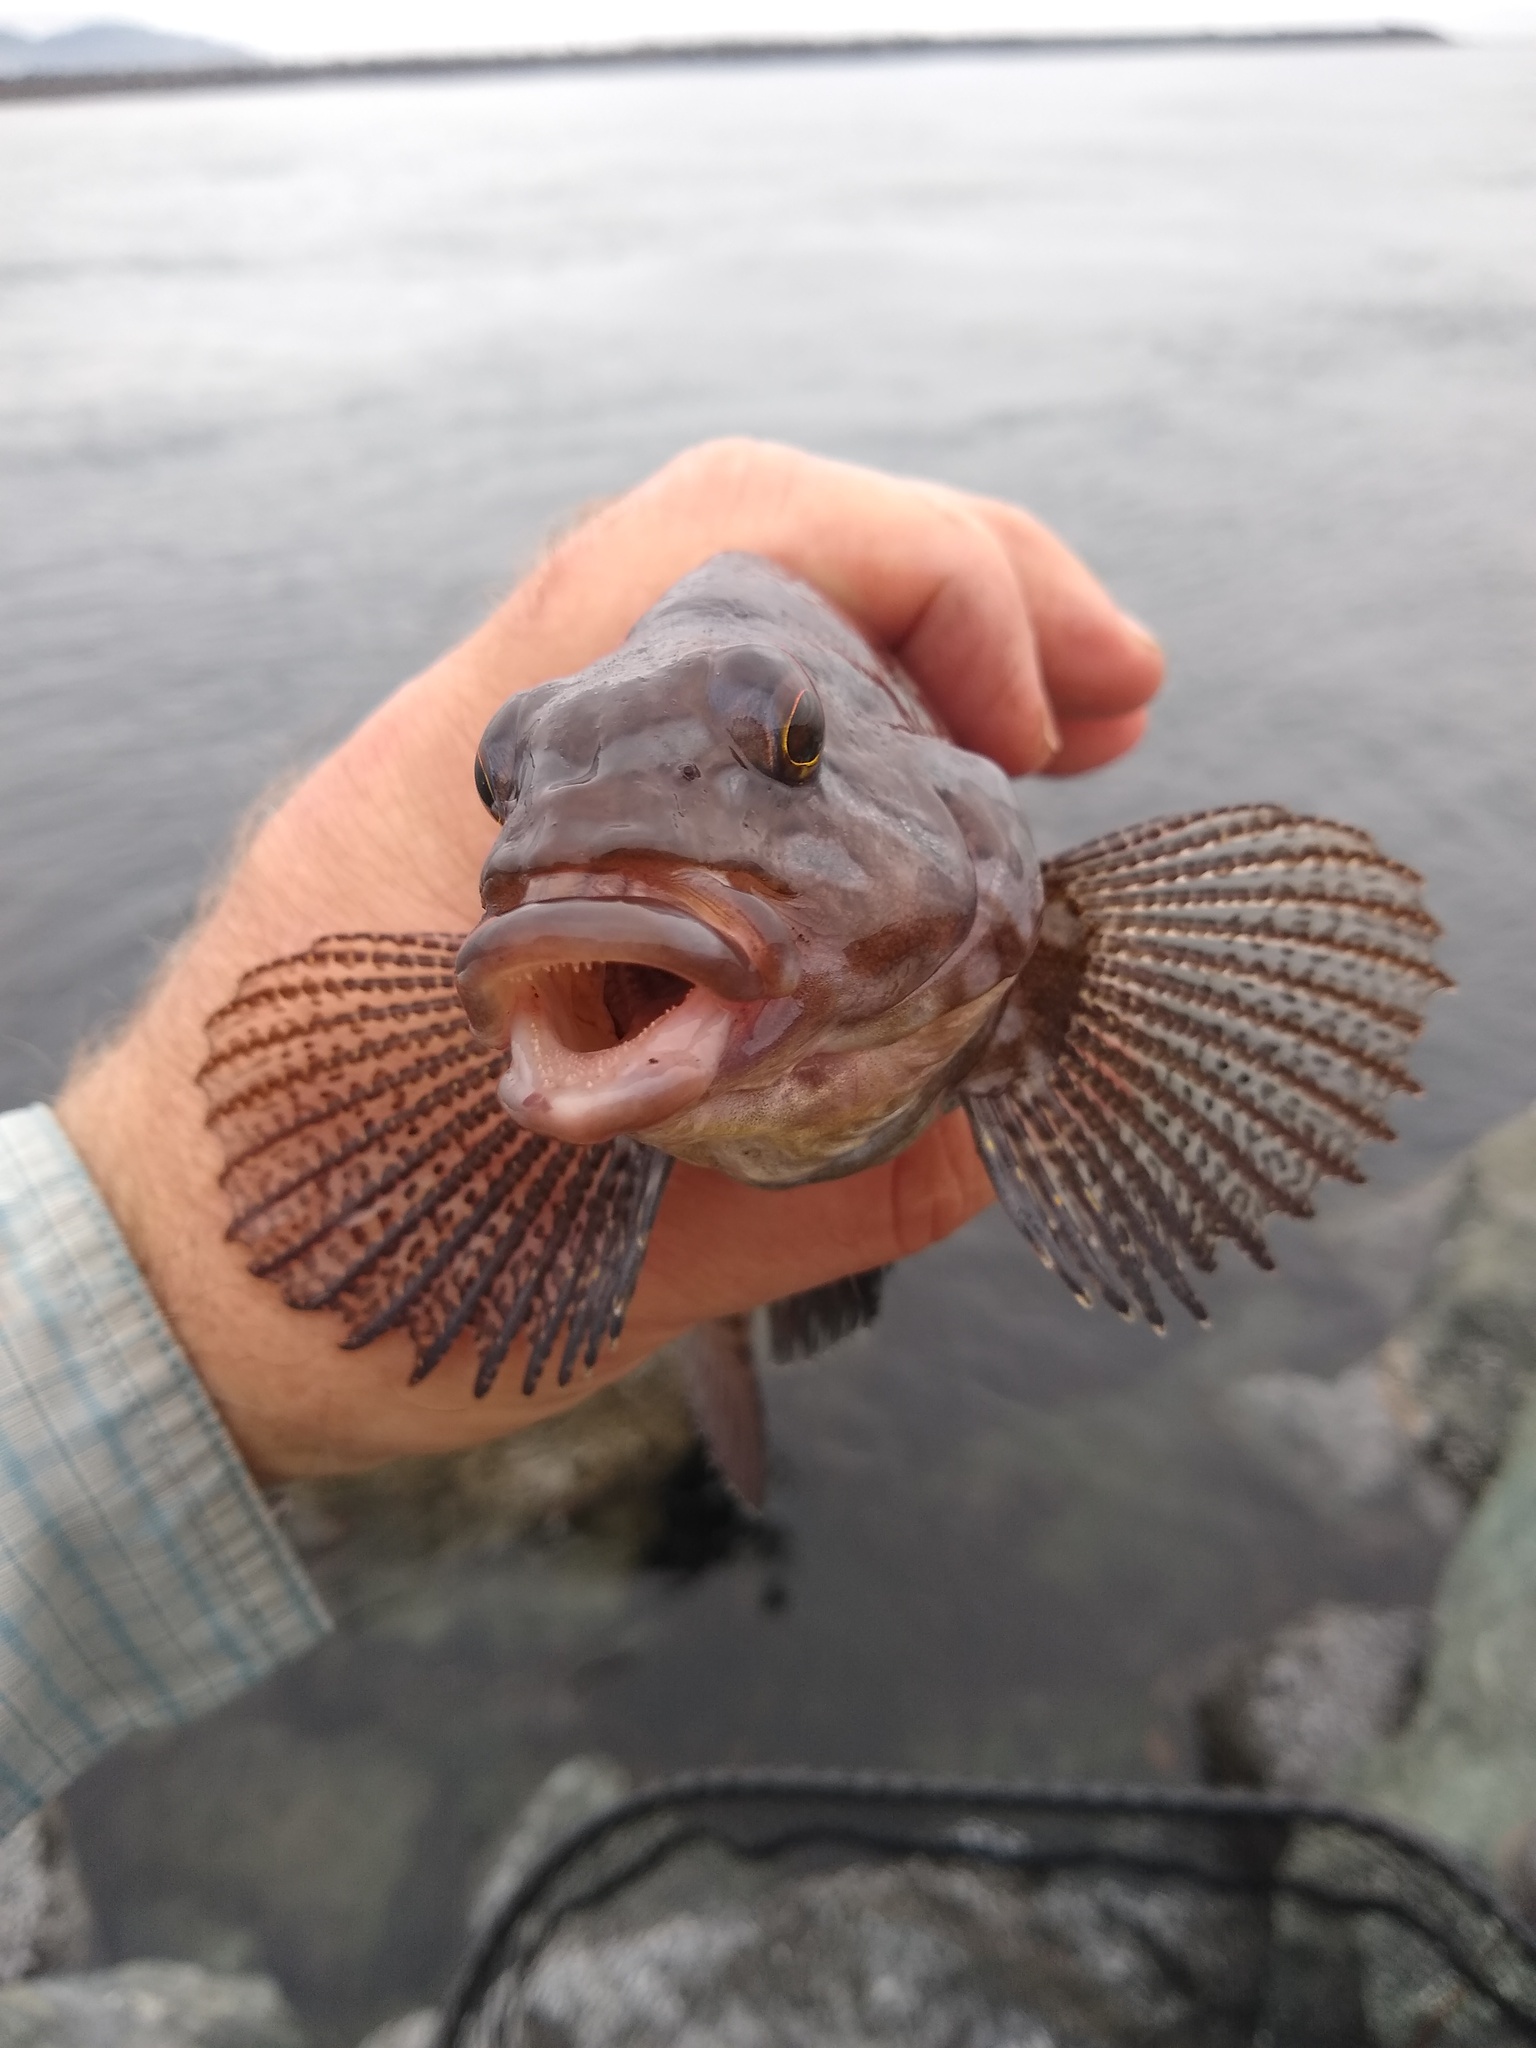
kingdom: Animalia
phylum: Chordata
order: Scorpaeniformes
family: Hexagrammidae
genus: Hexagrammos
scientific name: Hexagrammos decagrammus
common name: Kelp greenling
